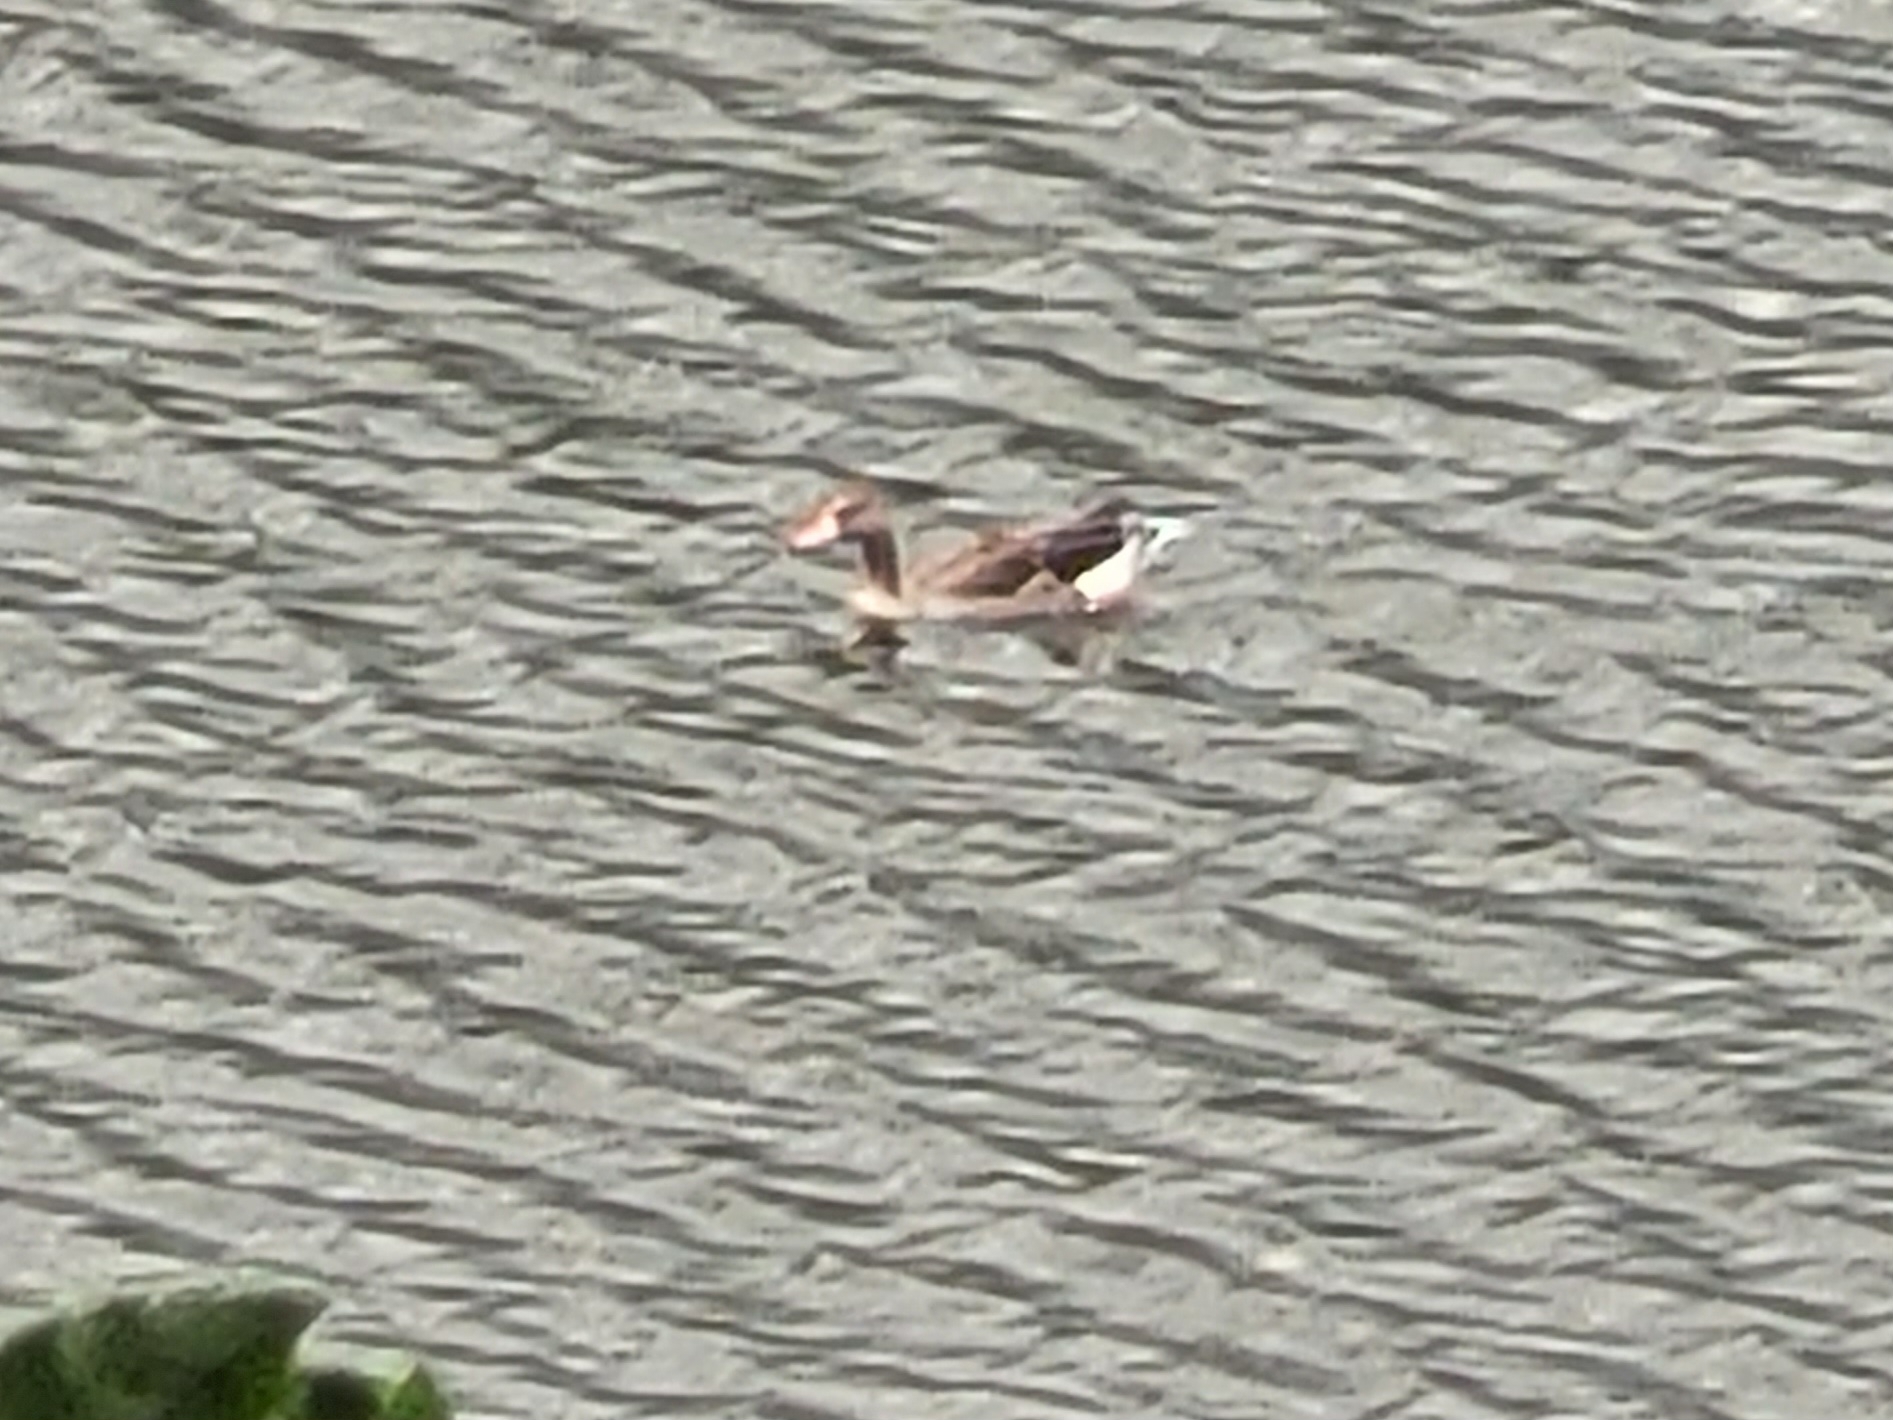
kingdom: Animalia
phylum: Chordata
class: Aves
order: Anseriformes
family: Anatidae
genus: Anser
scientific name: Anser anser
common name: Greylag goose
